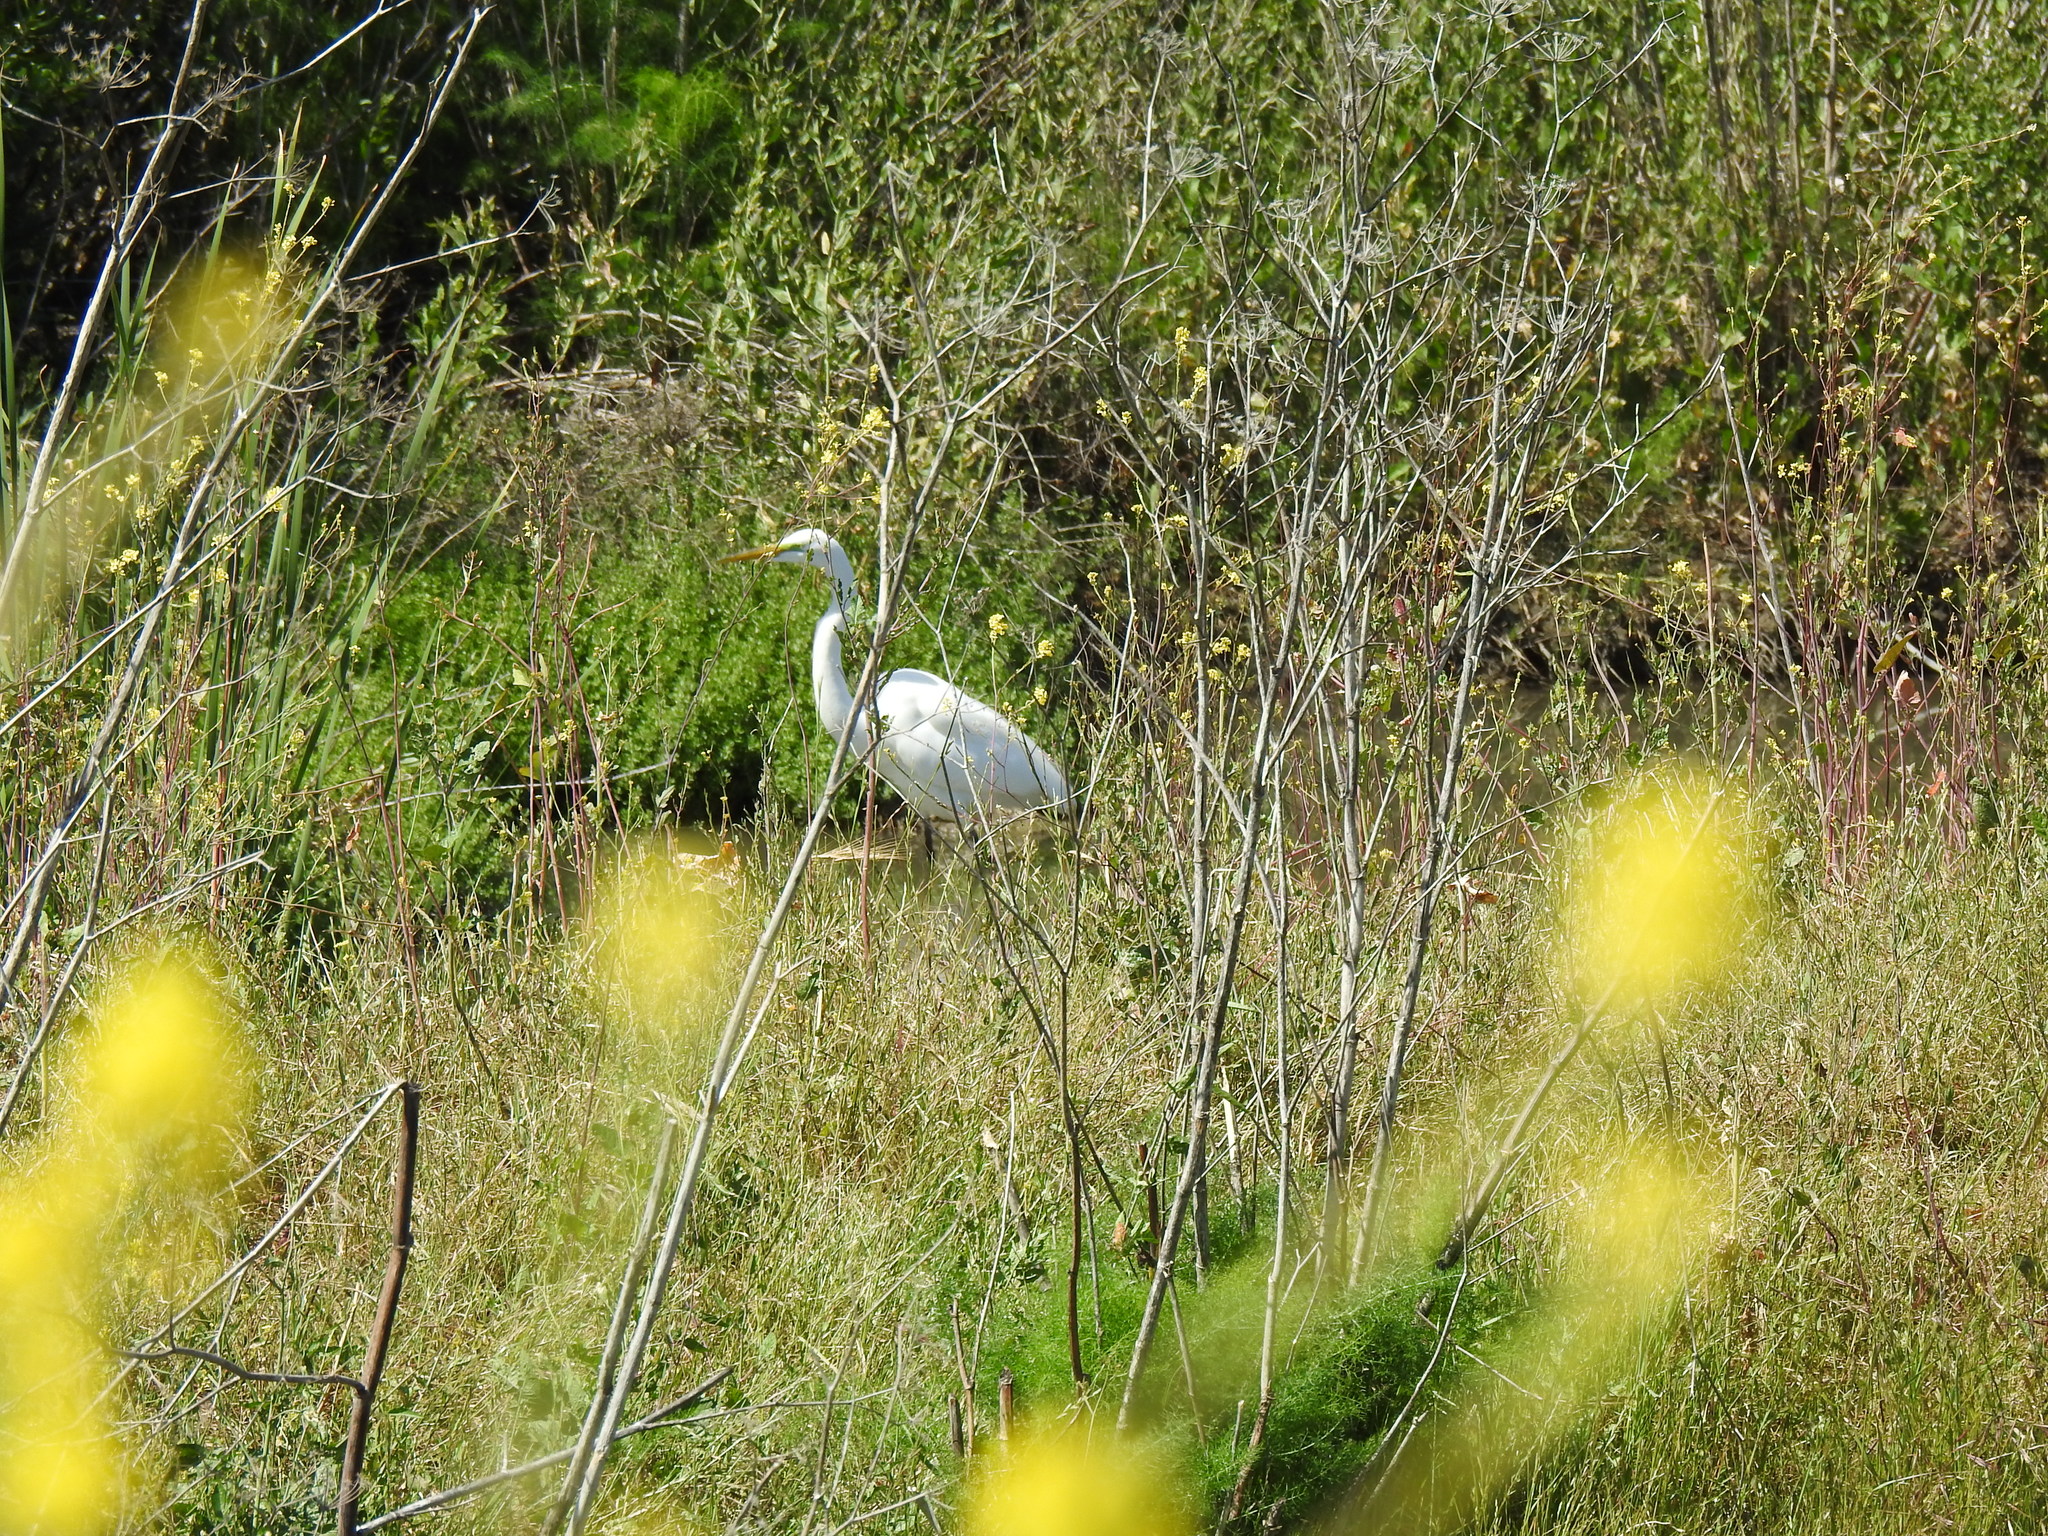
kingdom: Animalia
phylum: Chordata
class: Aves
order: Pelecaniformes
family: Ardeidae
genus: Ardea
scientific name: Ardea alba
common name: Great egret
